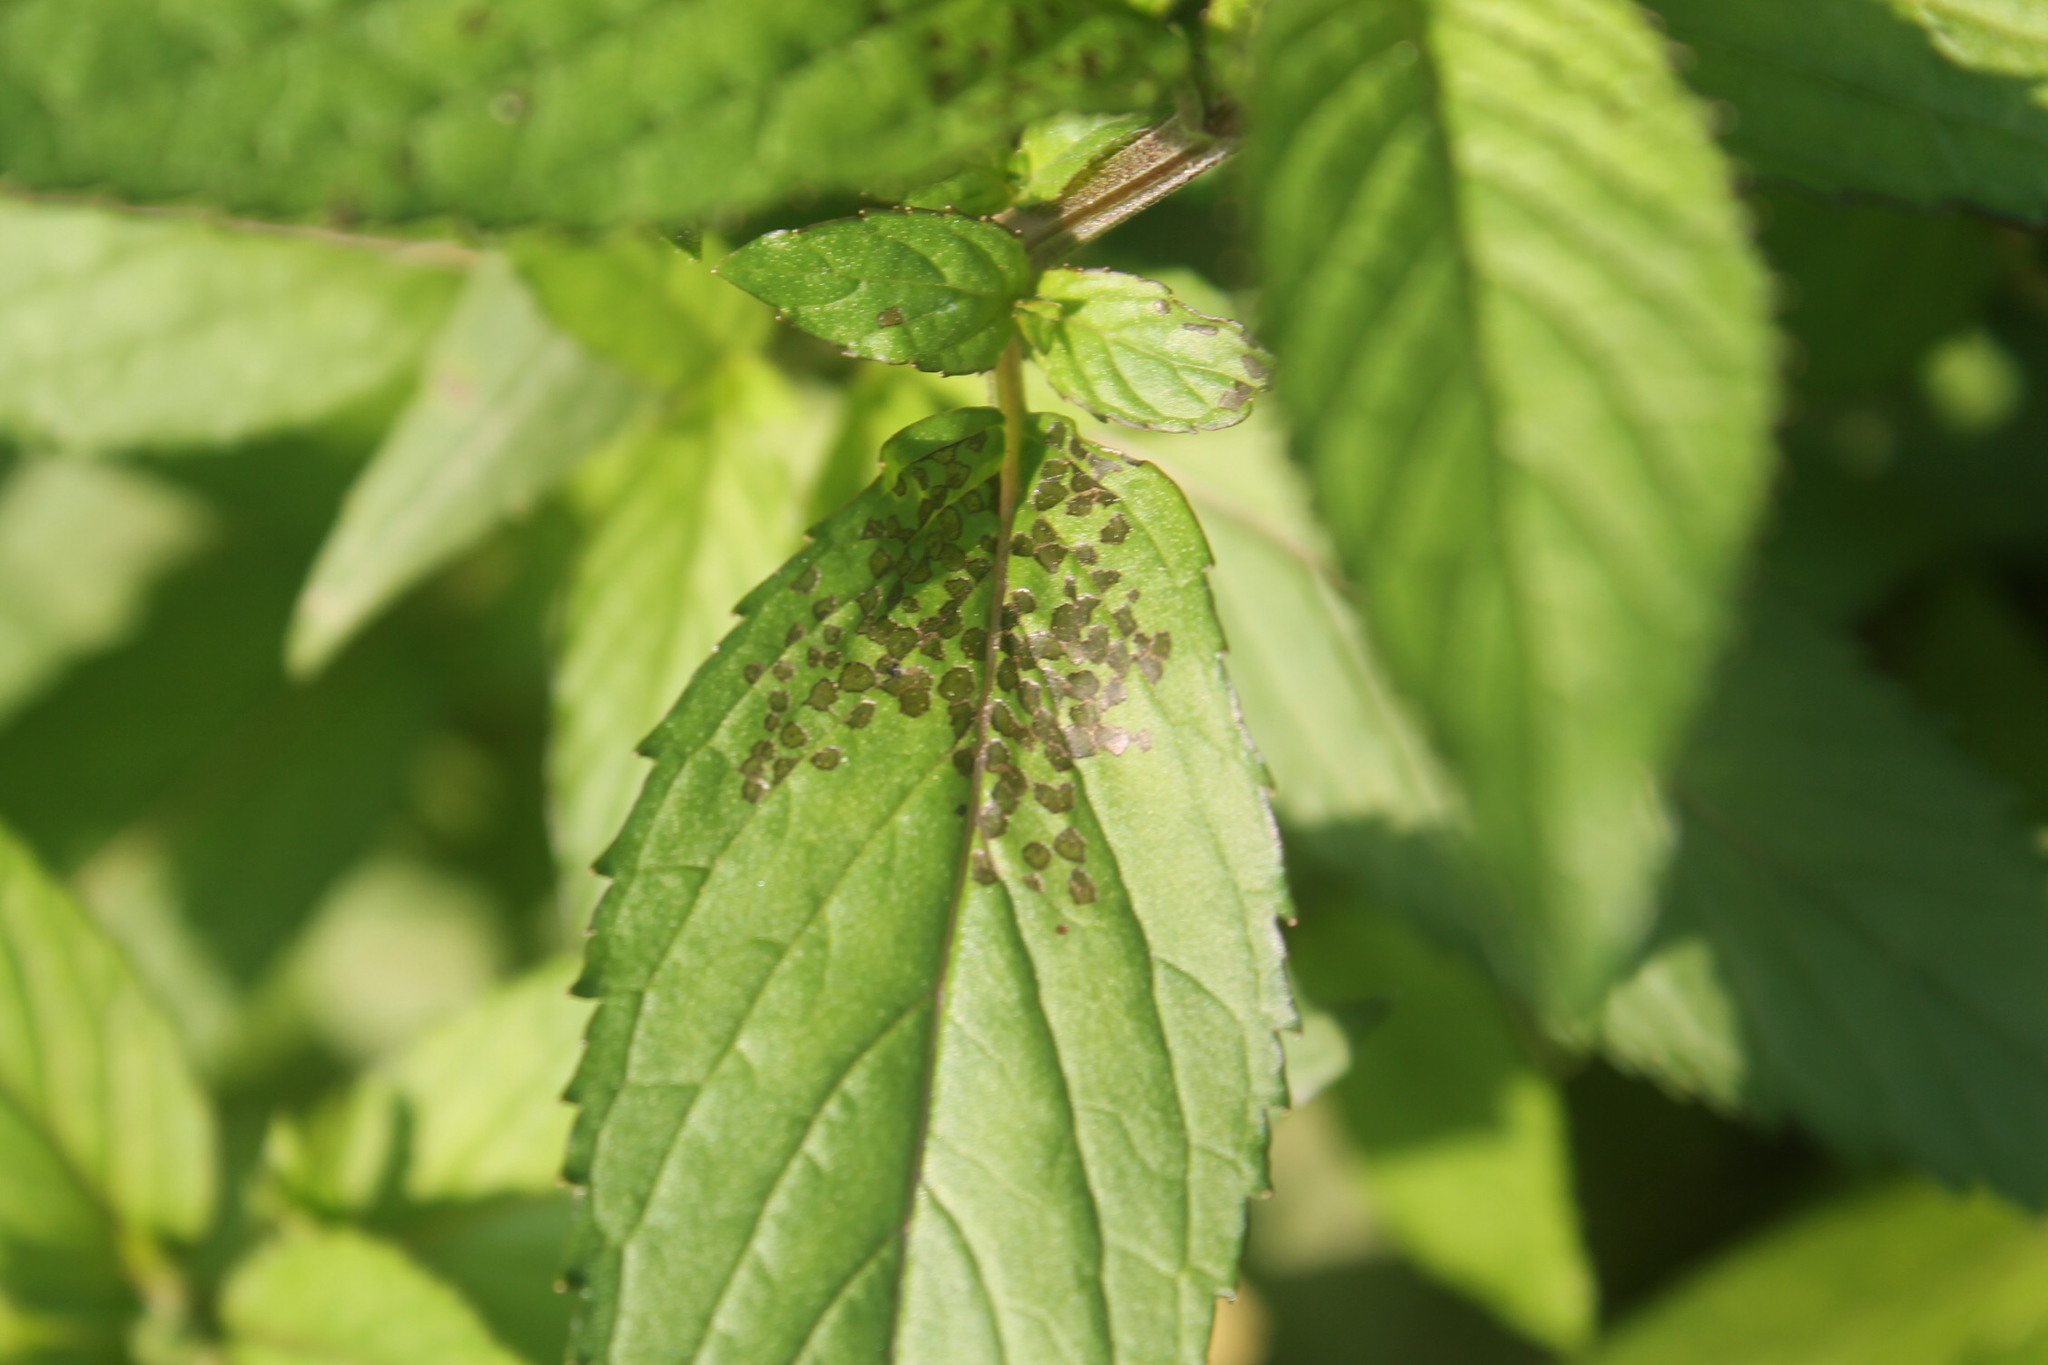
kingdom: Animalia
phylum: Arthropoda
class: Insecta
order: Hemiptera
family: Miridae
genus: Poecilocapsus
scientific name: Poecilocapsus lineatus
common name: Four-lined plant bug
